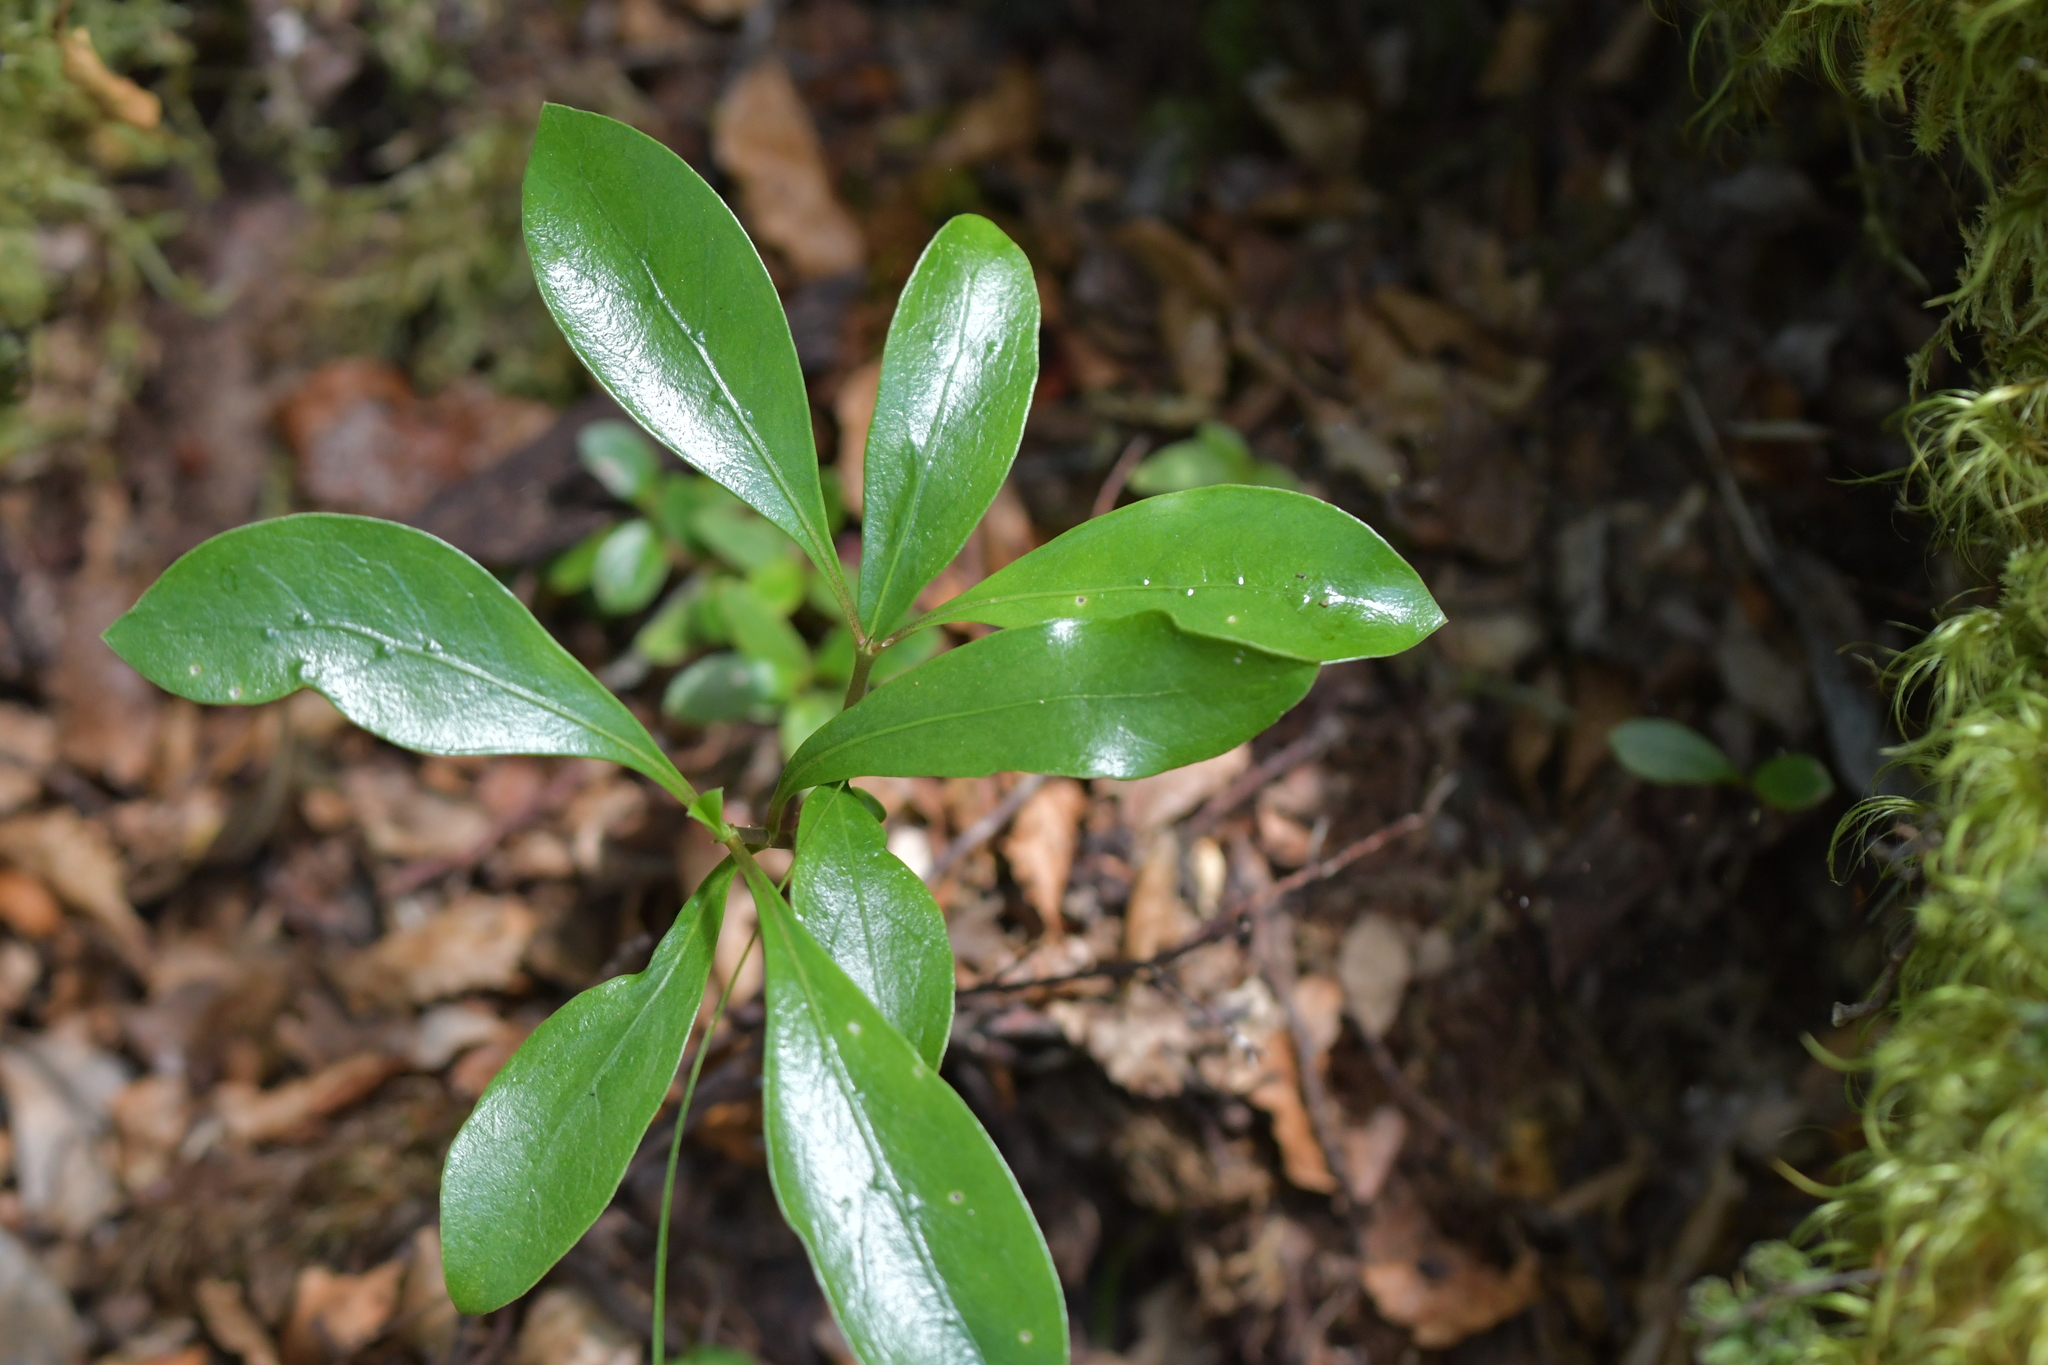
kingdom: Plantae
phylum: Tracheophyta
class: Magnoliopsida
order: Gentianales
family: Rubiaceae
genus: Coprosma
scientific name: Coprosma lucida
